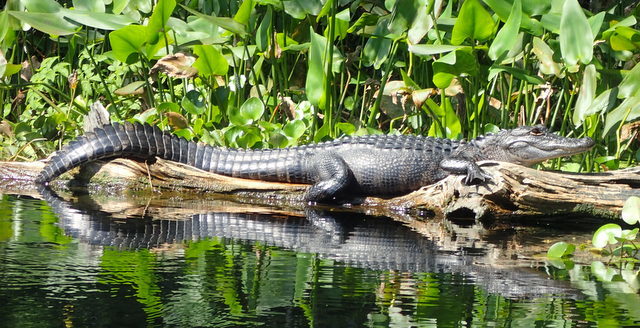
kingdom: Animalia
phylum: Chordata
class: Crocodylia
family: Alligatoridae
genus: Alligator
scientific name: Alligator mississippiensis
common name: American alligator
